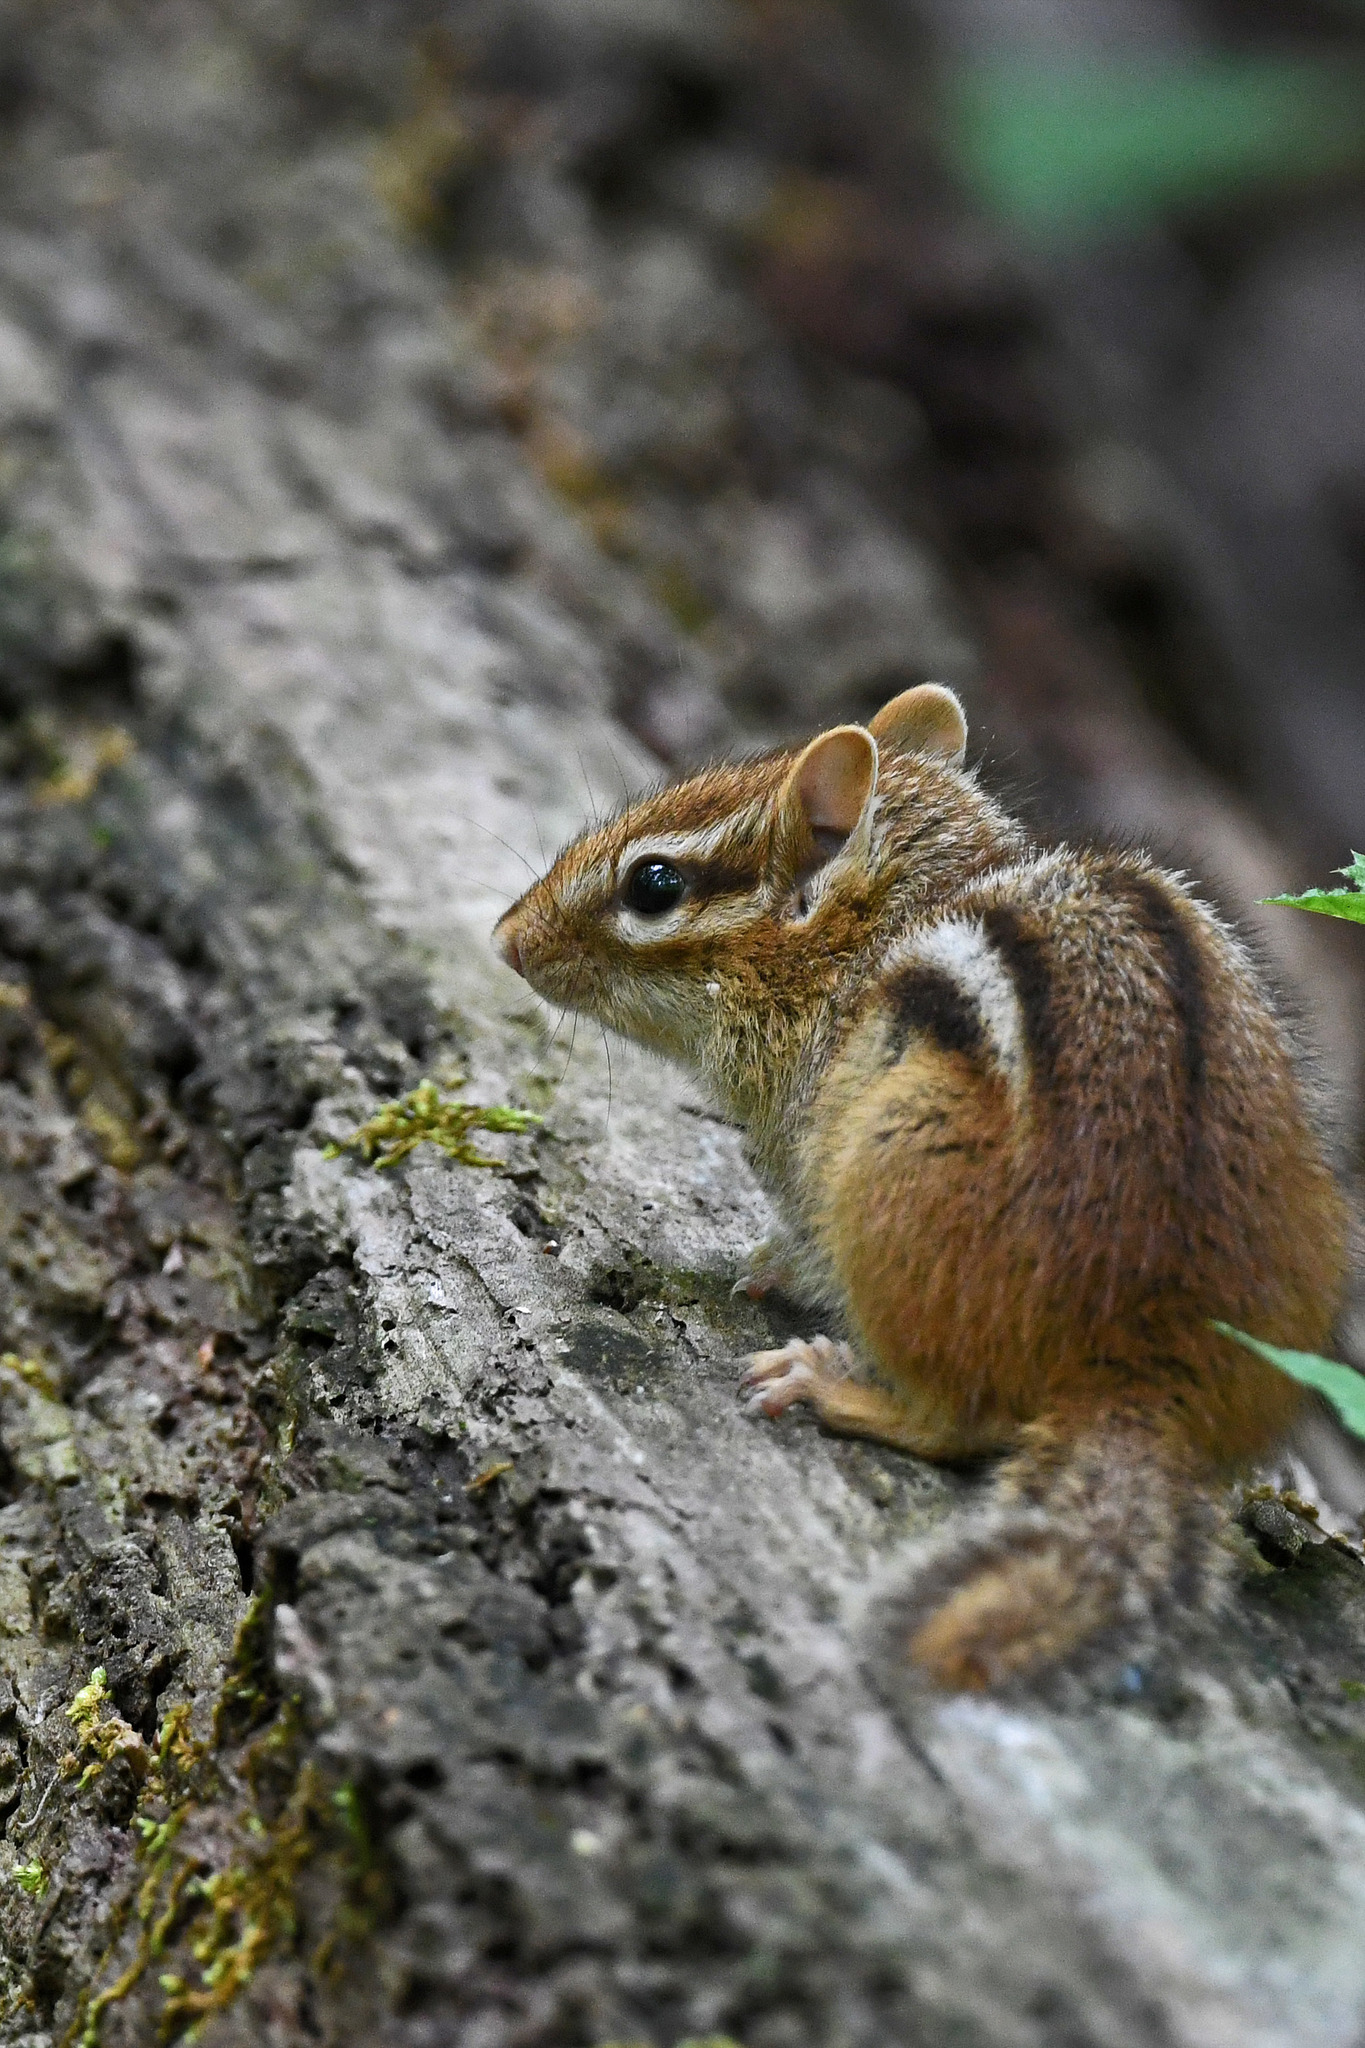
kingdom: Animalia
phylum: Chordata
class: Mammalia
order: Rodentia
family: Sciuridae
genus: Tamias
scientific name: Tamias striatus
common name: Eastern chipmunk
